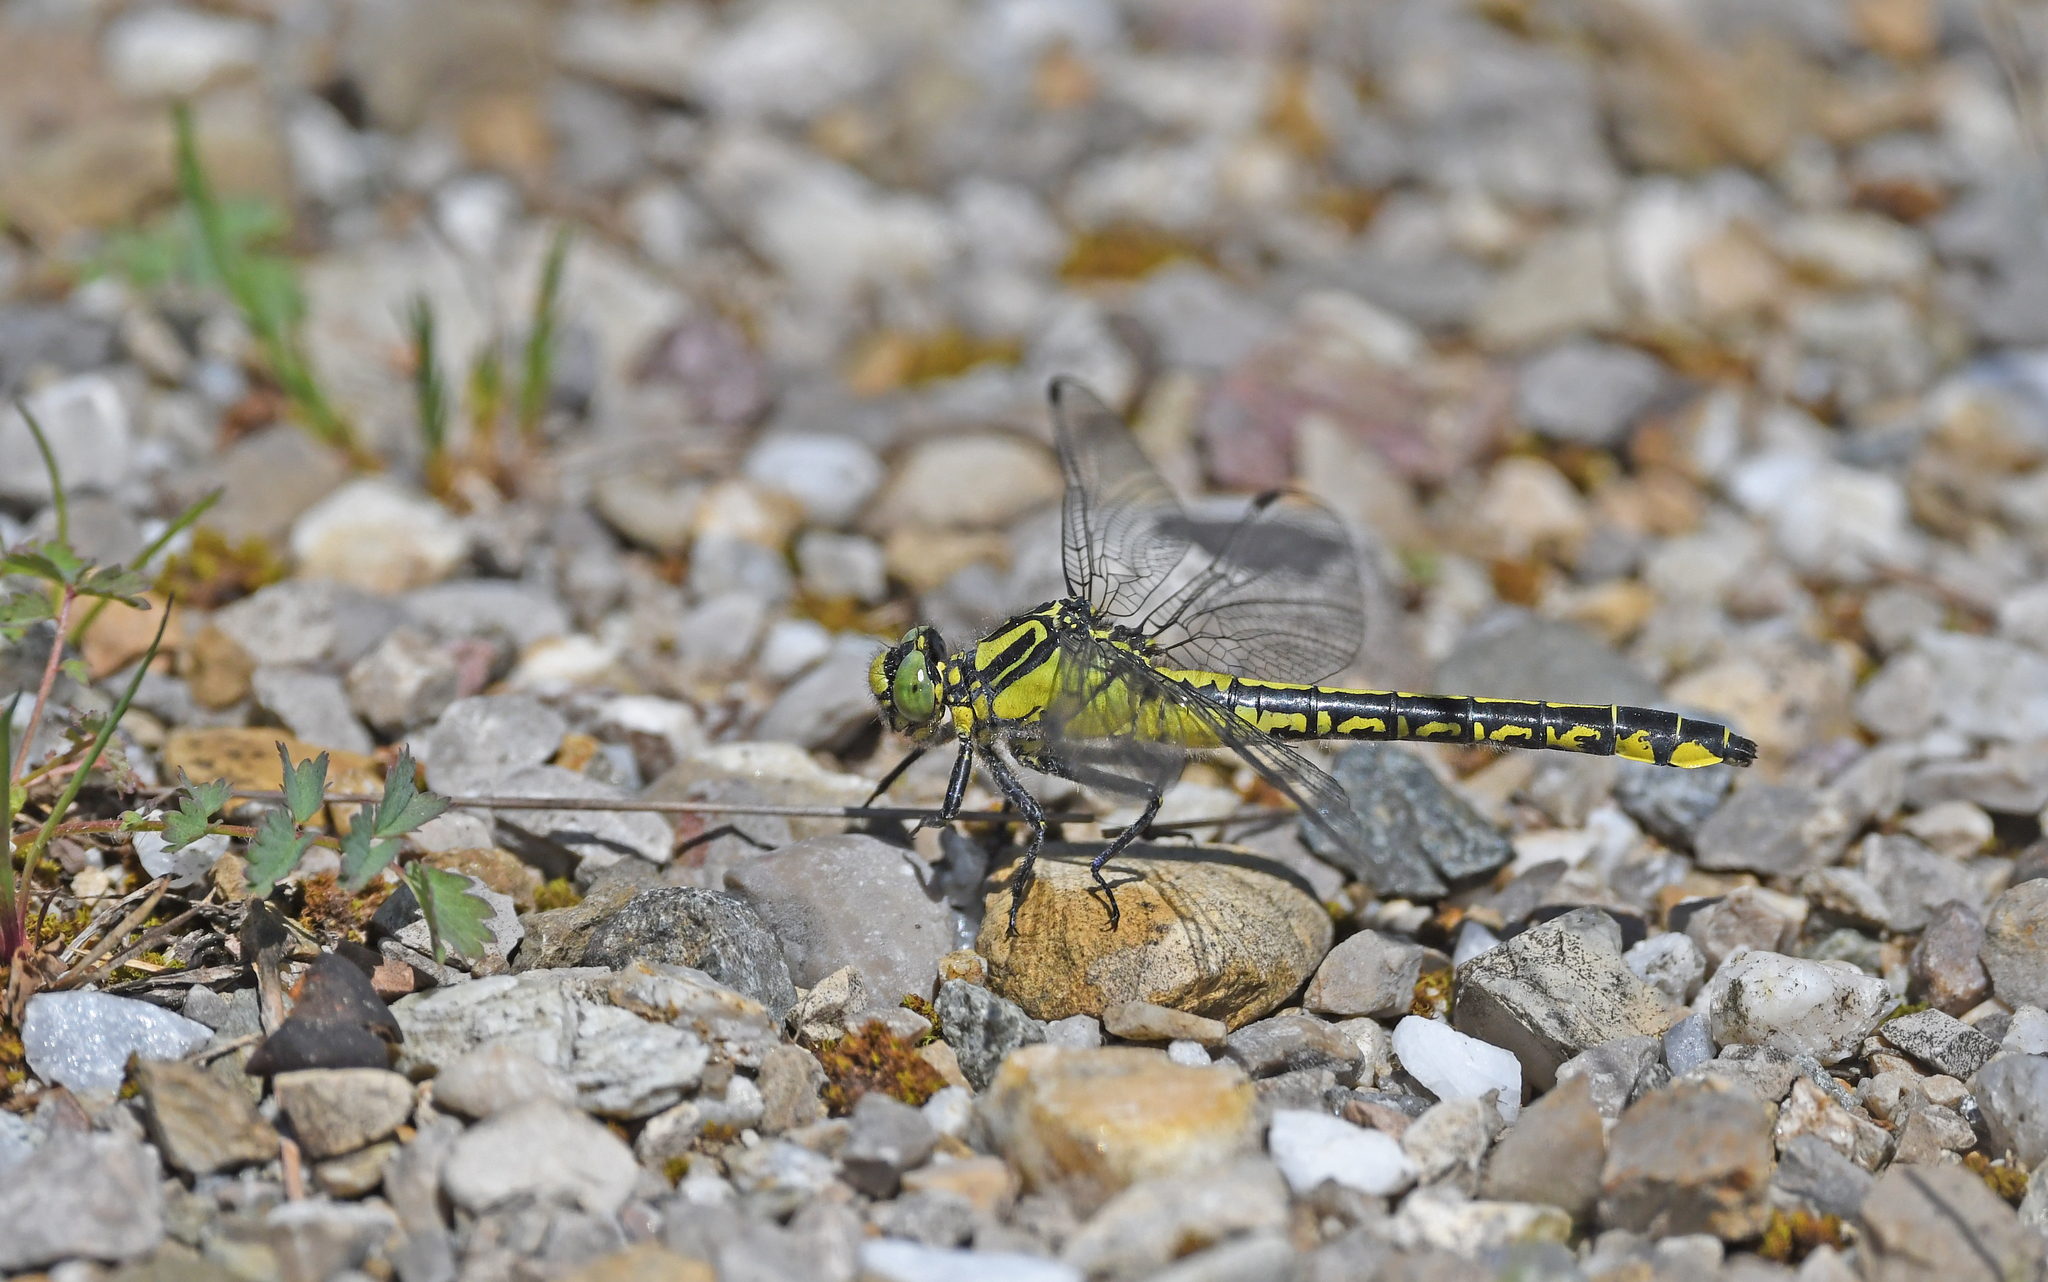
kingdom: Animalia
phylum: Arthropoda
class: Insecta
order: Odonata
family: Gomphidae
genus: Gomphus
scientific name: Gomphus vulgatissimus
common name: Club-tailed dragonfly
